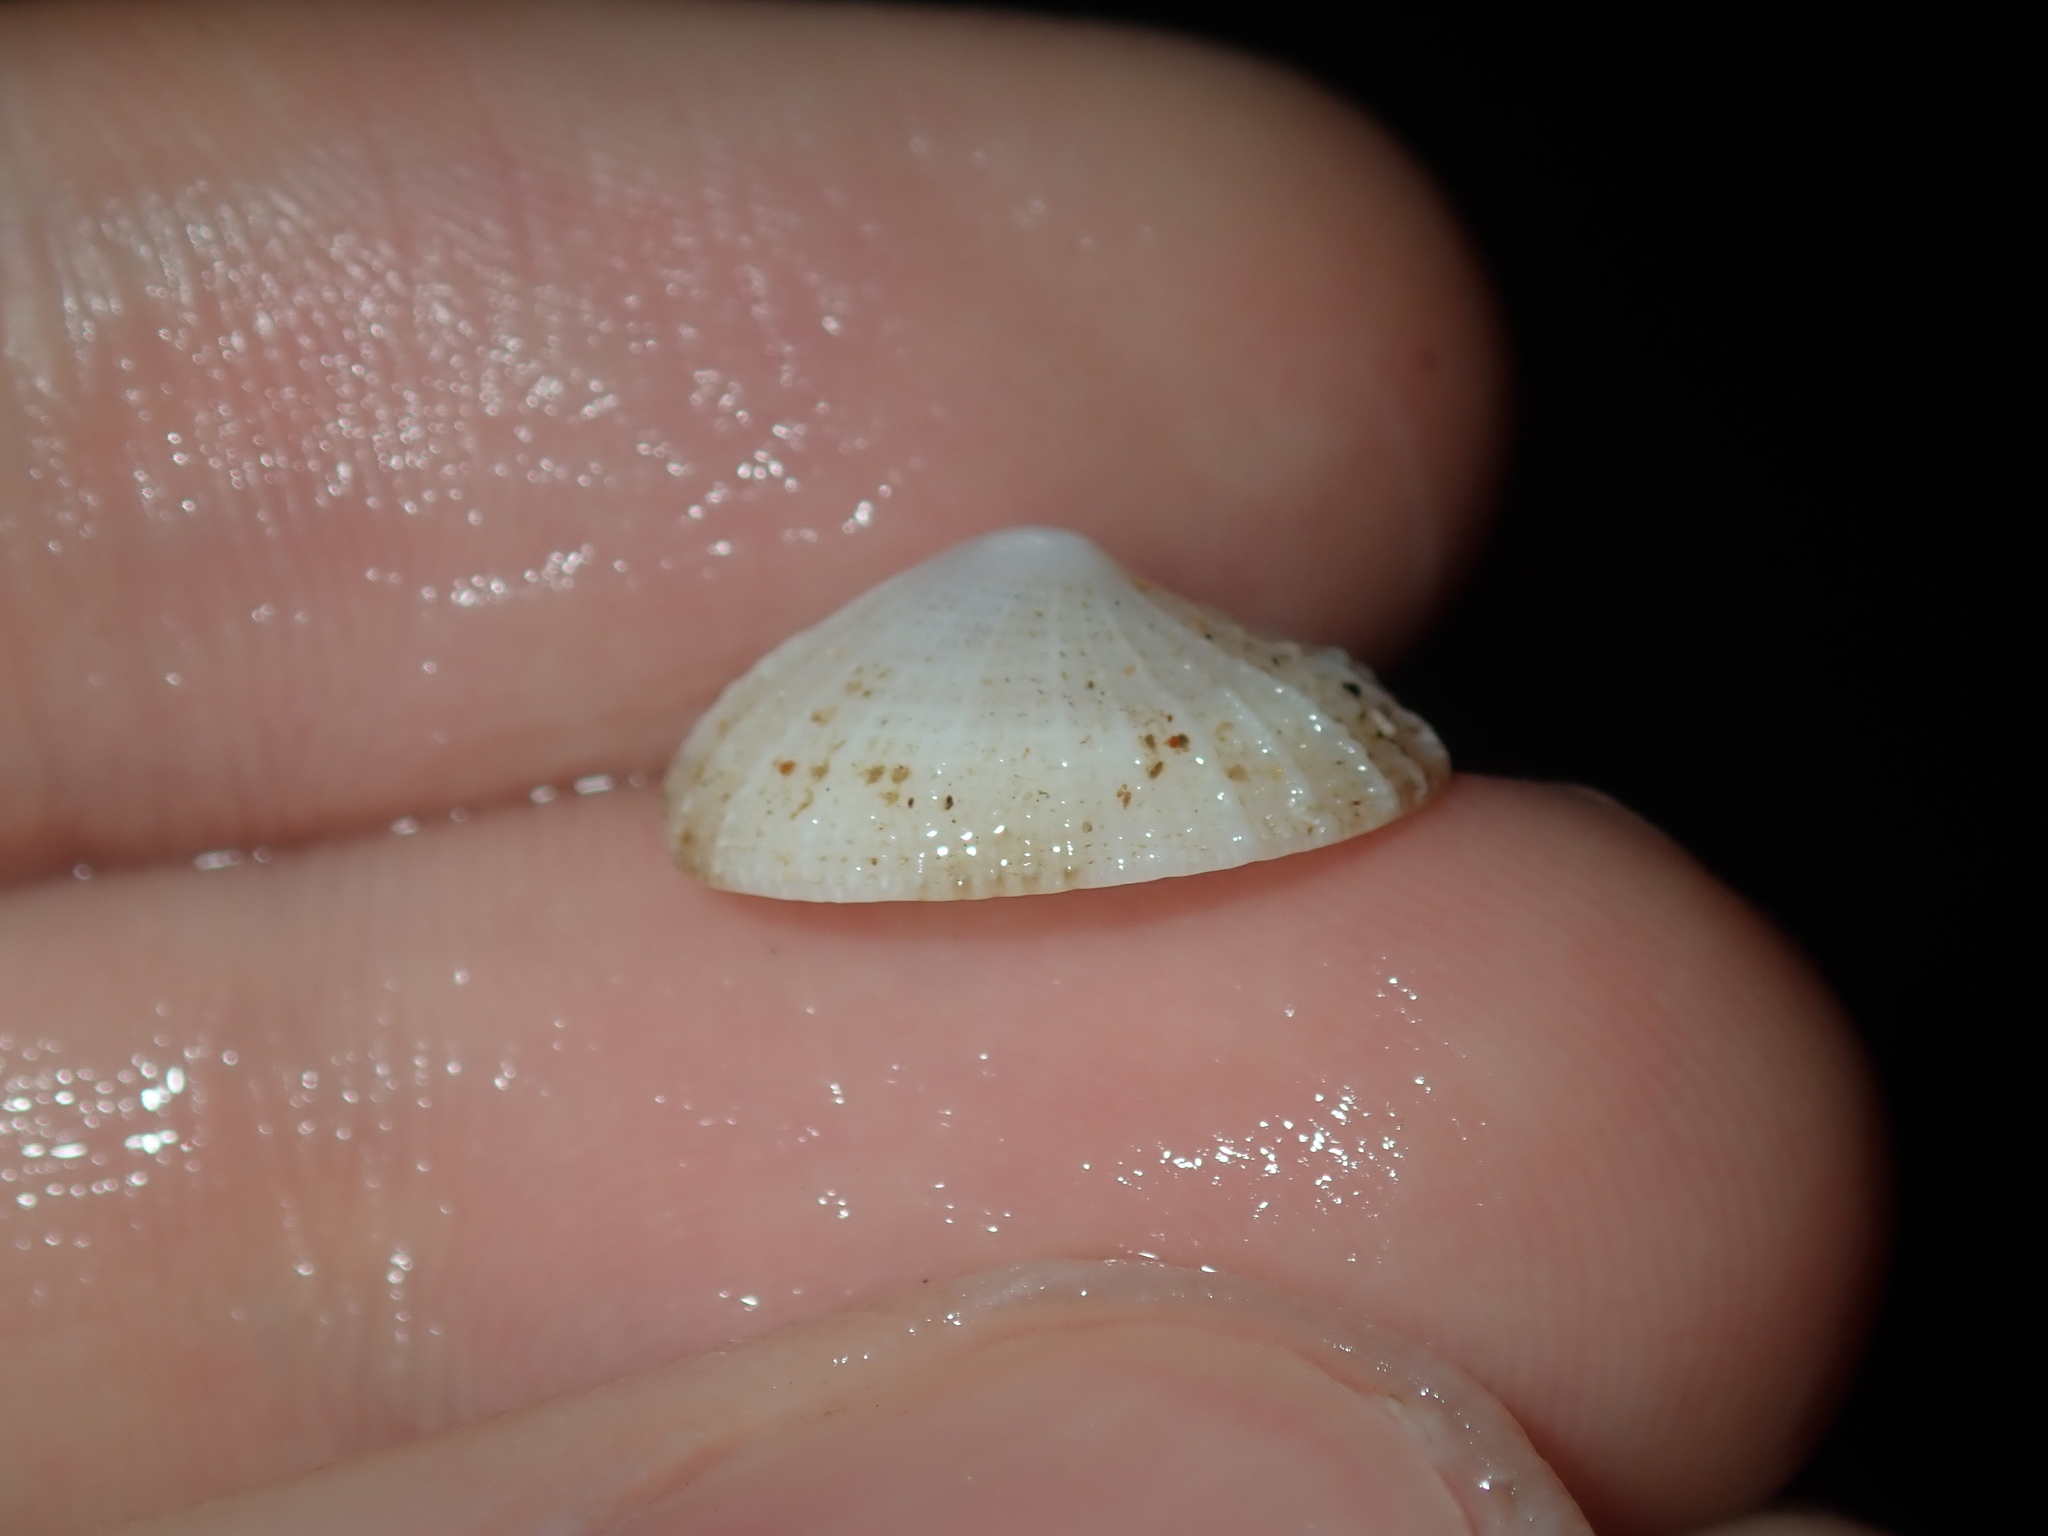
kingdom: Animalia
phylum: Mollusca
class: Gastropoda
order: Lepetellida
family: Fissurellidae
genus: Montfortula
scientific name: Montfortula rugosa
